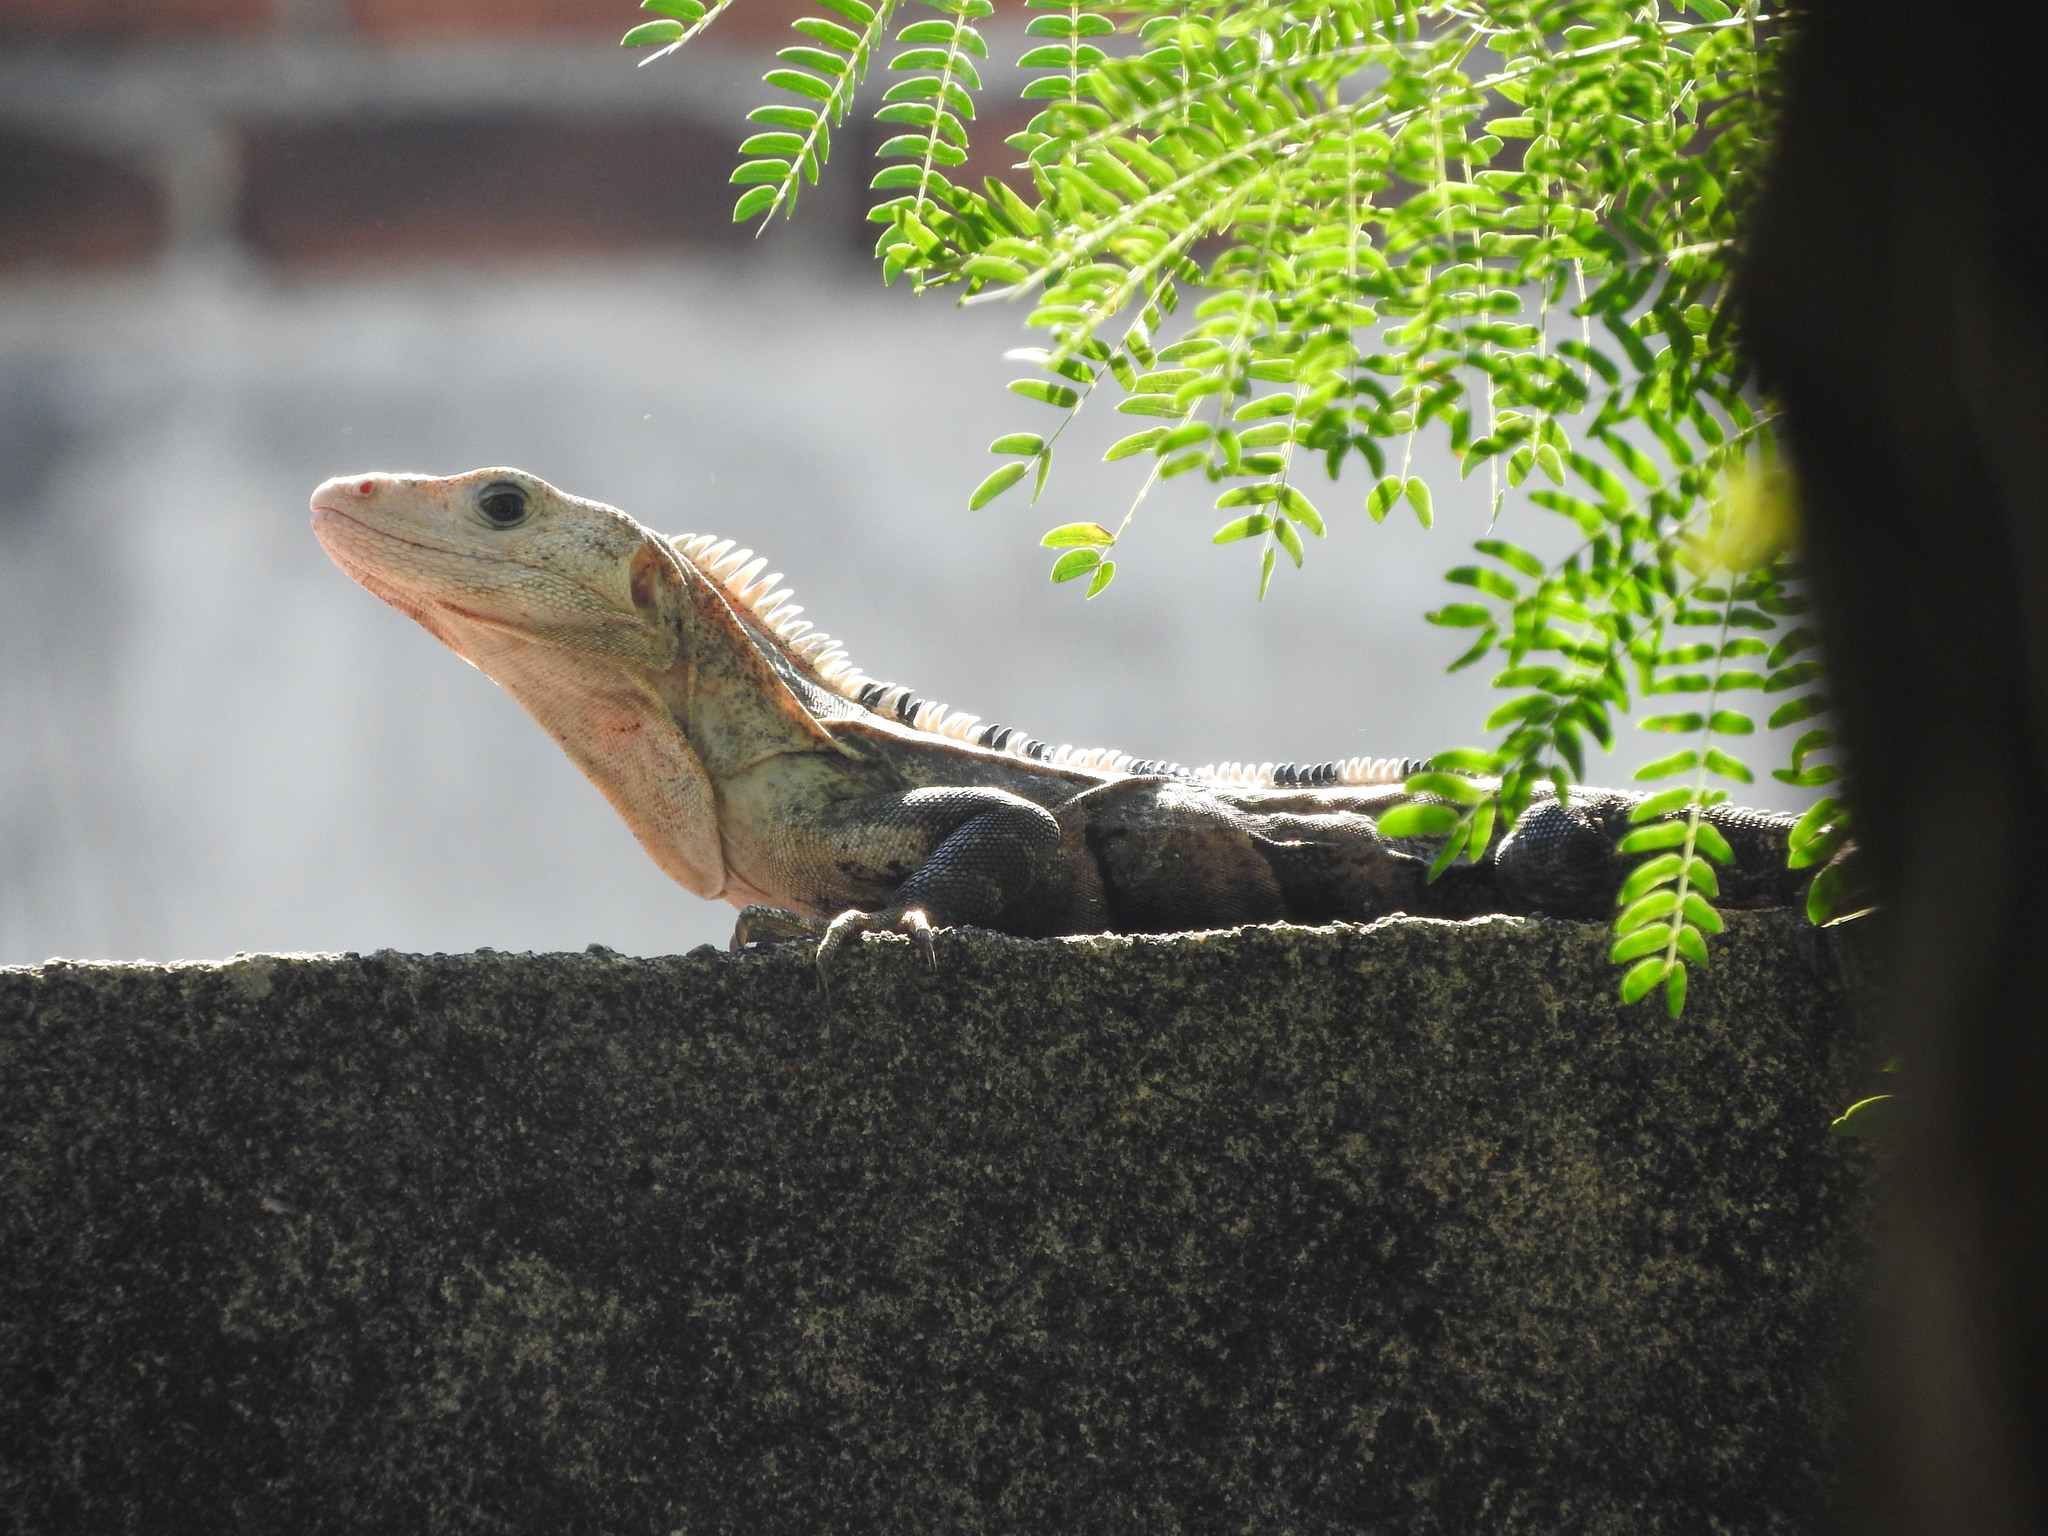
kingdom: Animalia
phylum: Chordata
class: Squamata
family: Iguanidae
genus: Ctenosaura
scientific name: Ctenosaura similis
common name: Black spiny-tailed iguana
